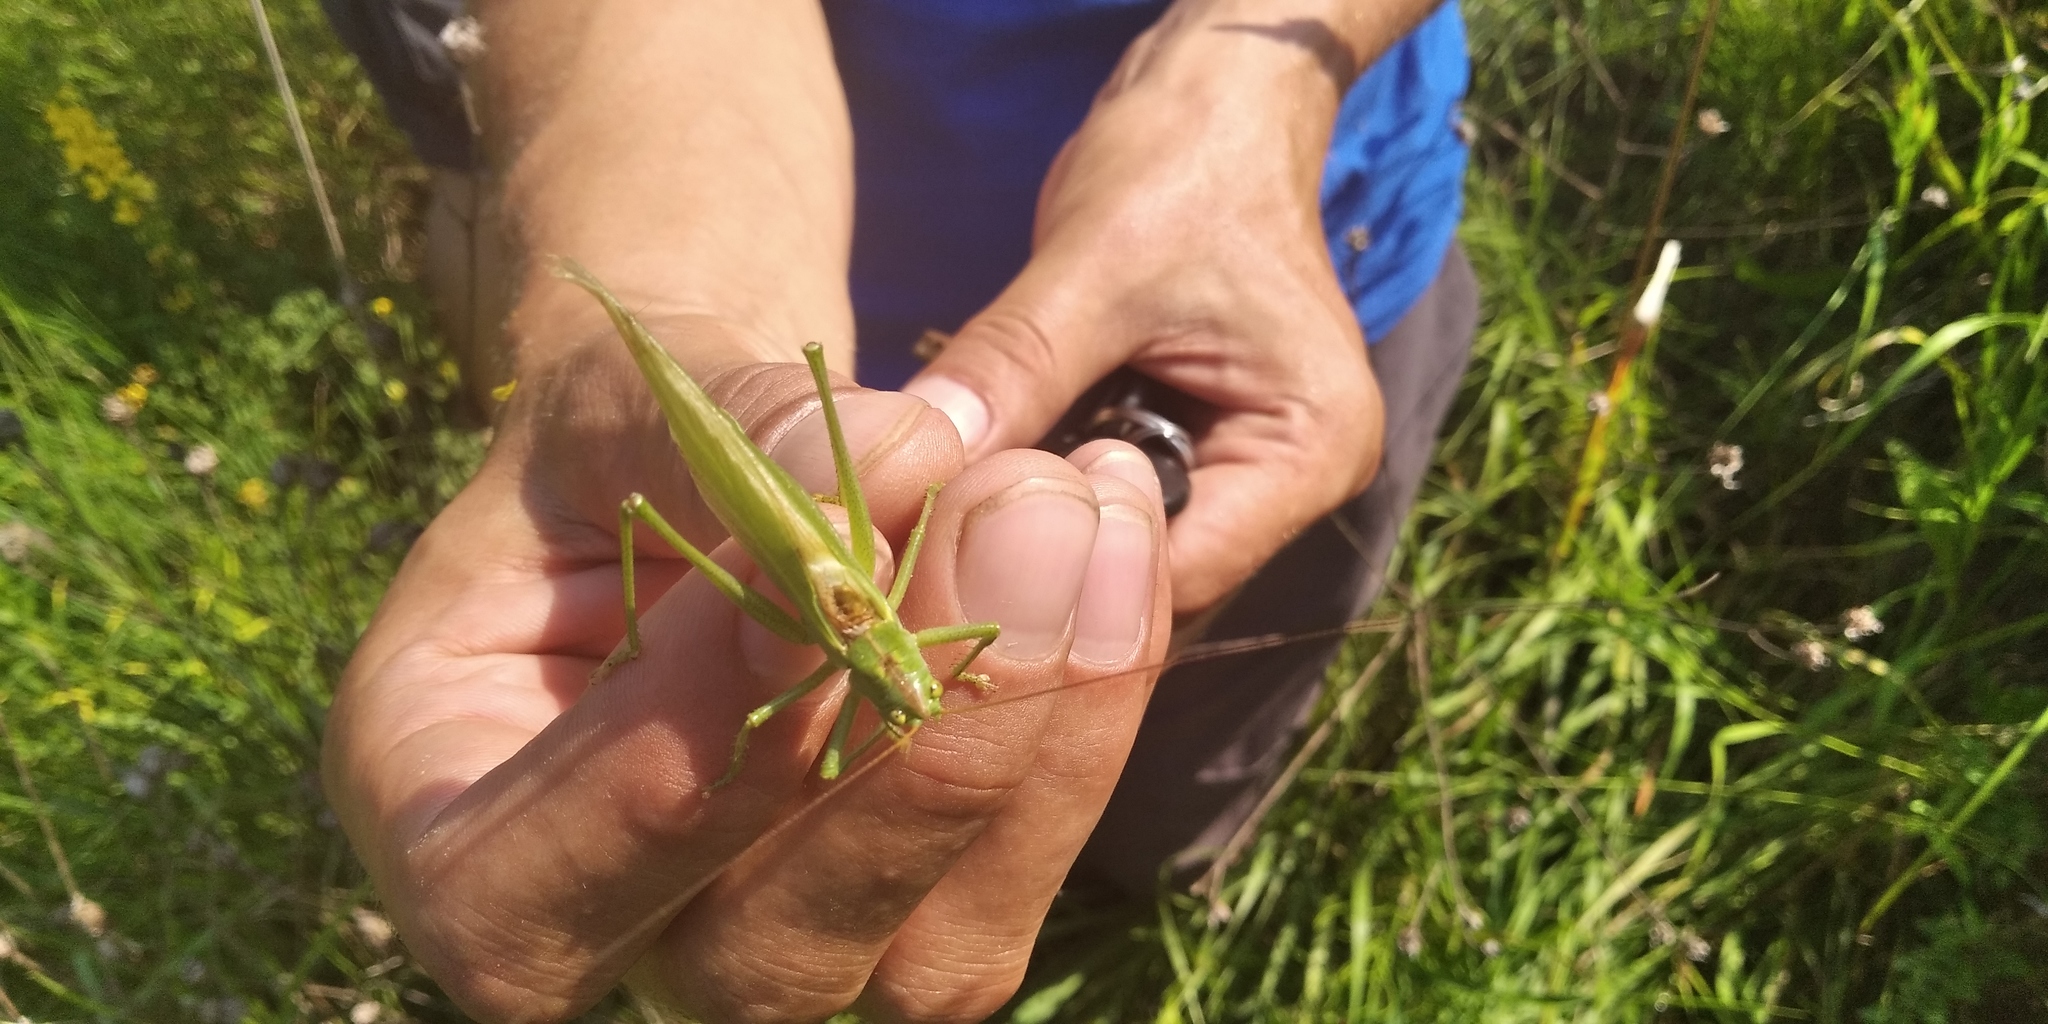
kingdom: Animalia
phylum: Arthropoda
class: Insecta
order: Orthoptera
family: Tettigoniidae
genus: Tettigonia
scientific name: Tettigonia viridissima
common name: Great green bush-cricket
